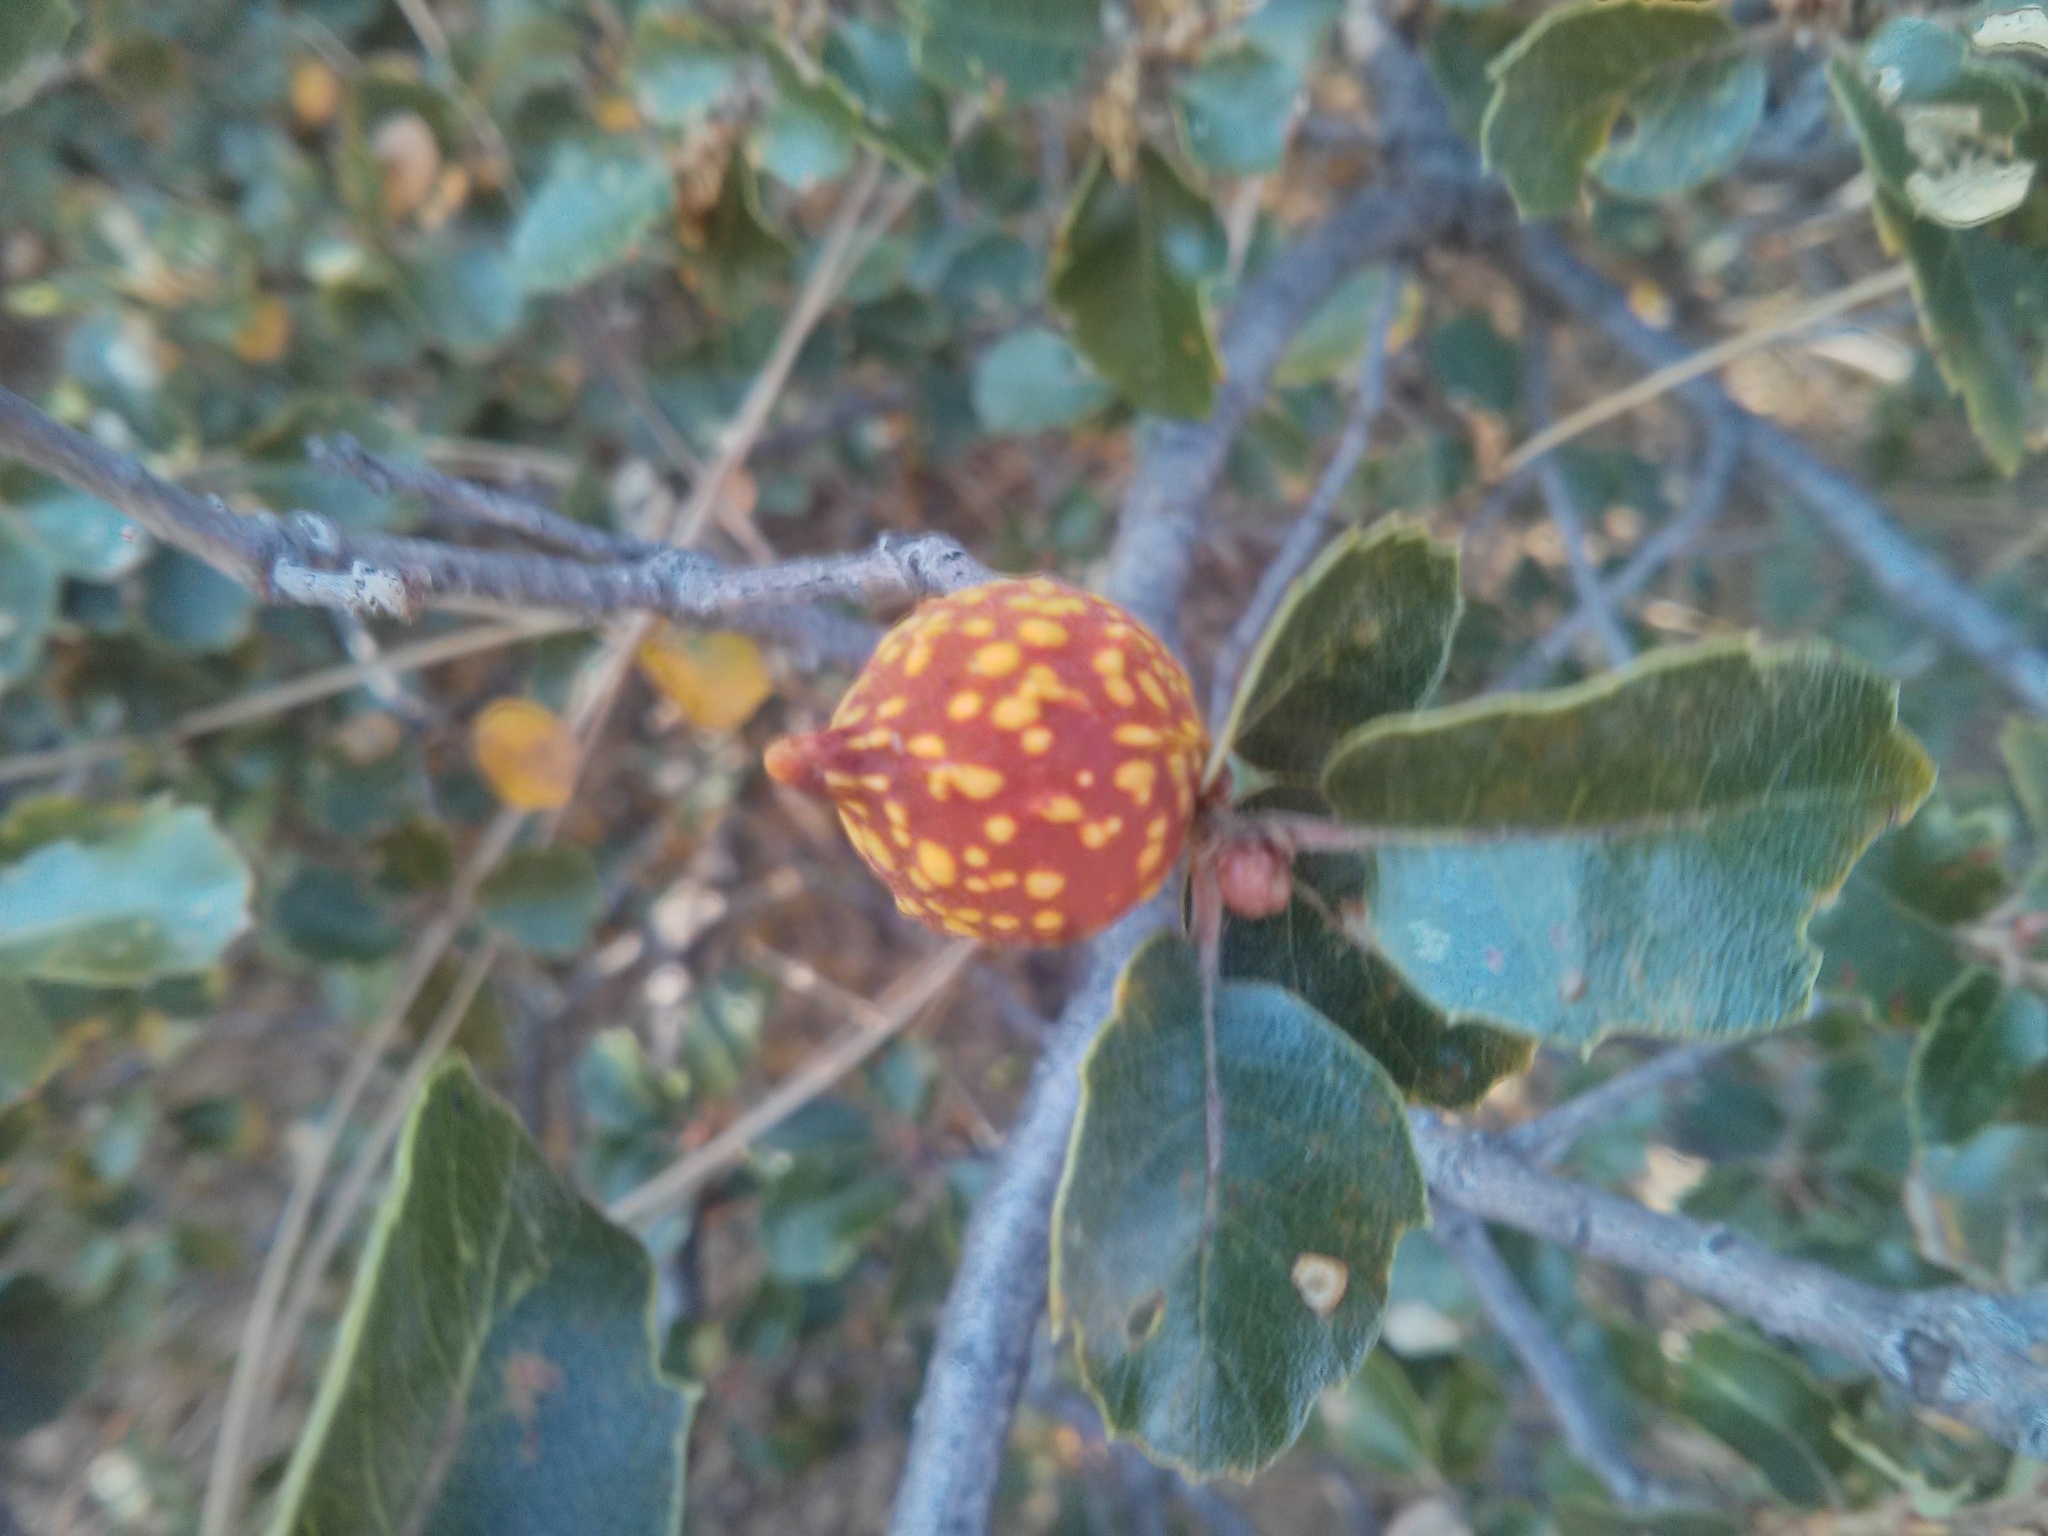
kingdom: Animalia
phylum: Arthropoda
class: Insecta
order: Hymenoptera
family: Cynipidae
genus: Burnettweldia
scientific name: Burnettweldia
